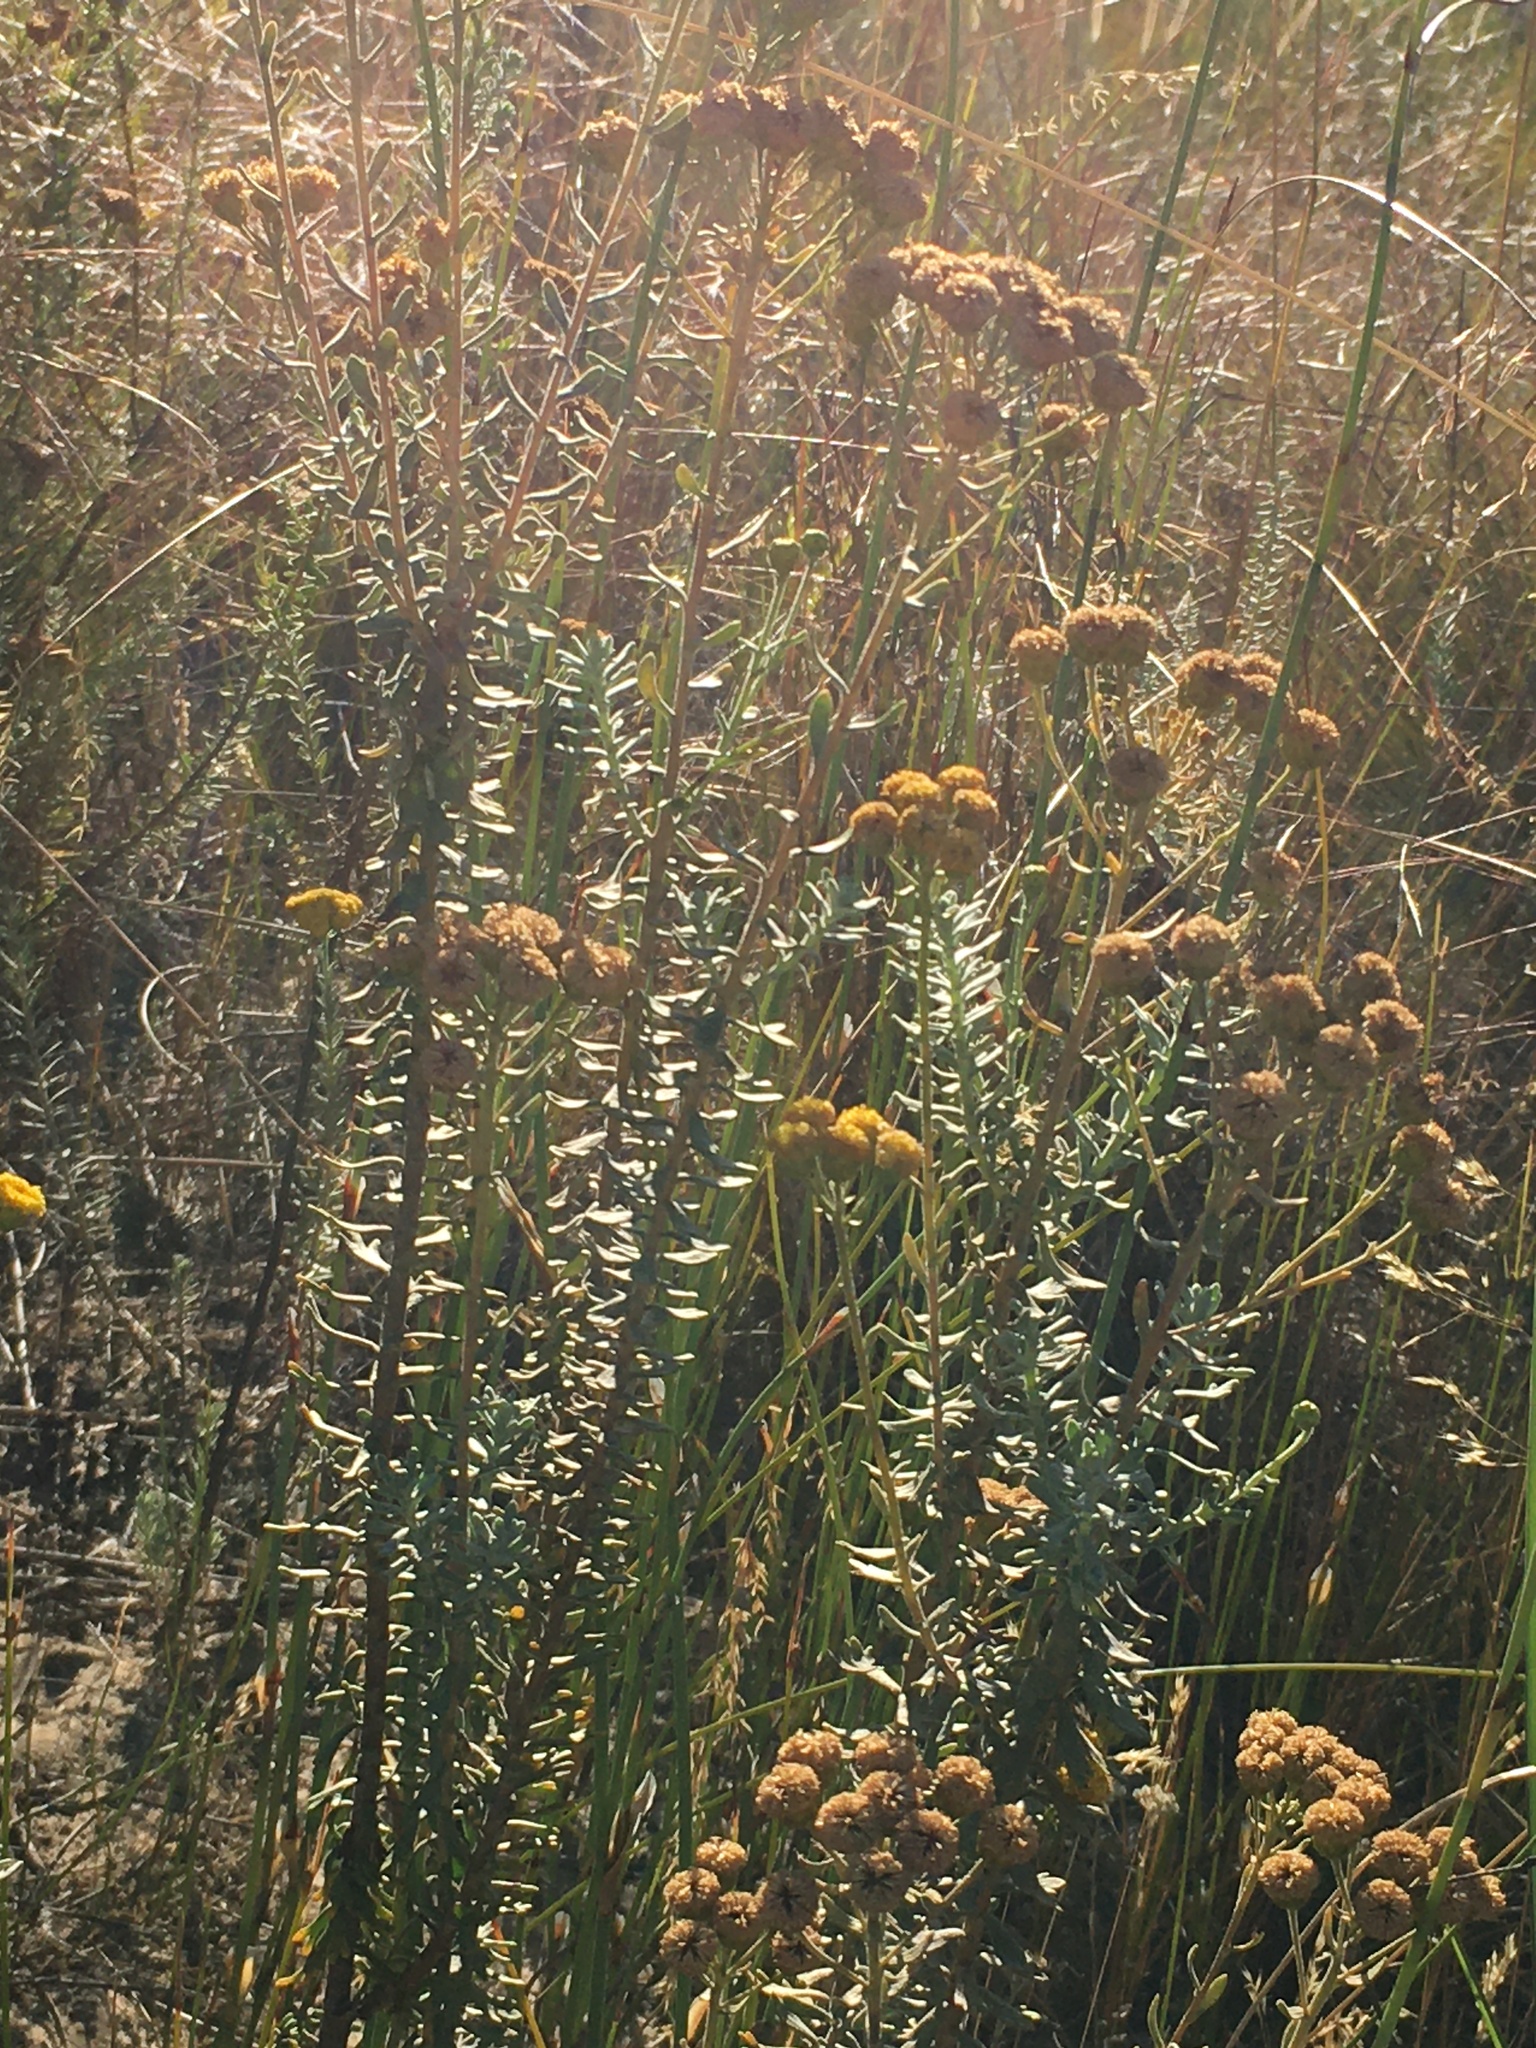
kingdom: Plantae
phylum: Tracheophyta
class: Magnoliopsida
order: Asterales
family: Asteraceae
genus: Athanasia
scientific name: Athanasia trifurcata
